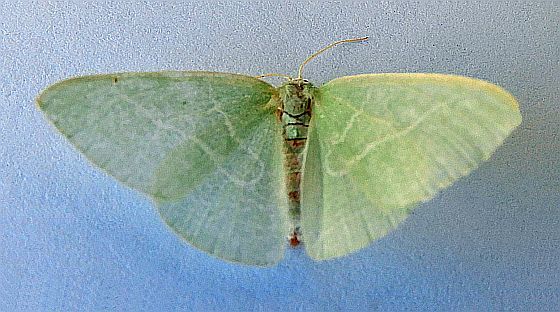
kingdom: Animalia
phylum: Arthropoda
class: Insecta
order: Lepidoptera
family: Geometridae
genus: Nemoria
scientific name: Nemoria unitaria
